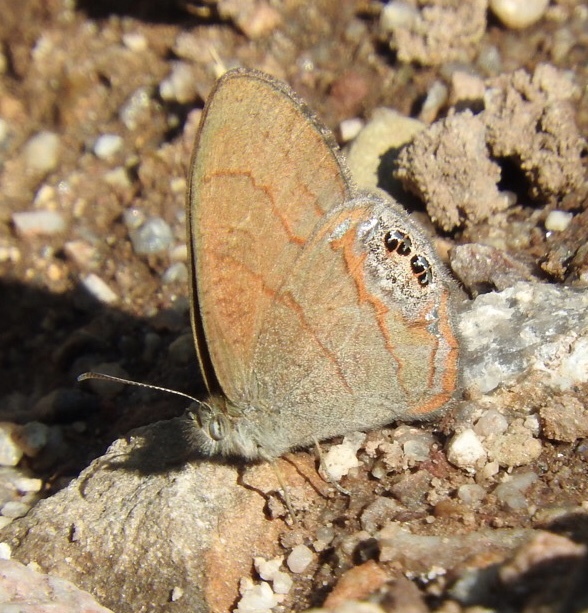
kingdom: Animalia
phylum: Arthropoda
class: Insecta
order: Lepidoptera
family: Nymphalidae
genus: Euptychia
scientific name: Euptychia pyracmon
